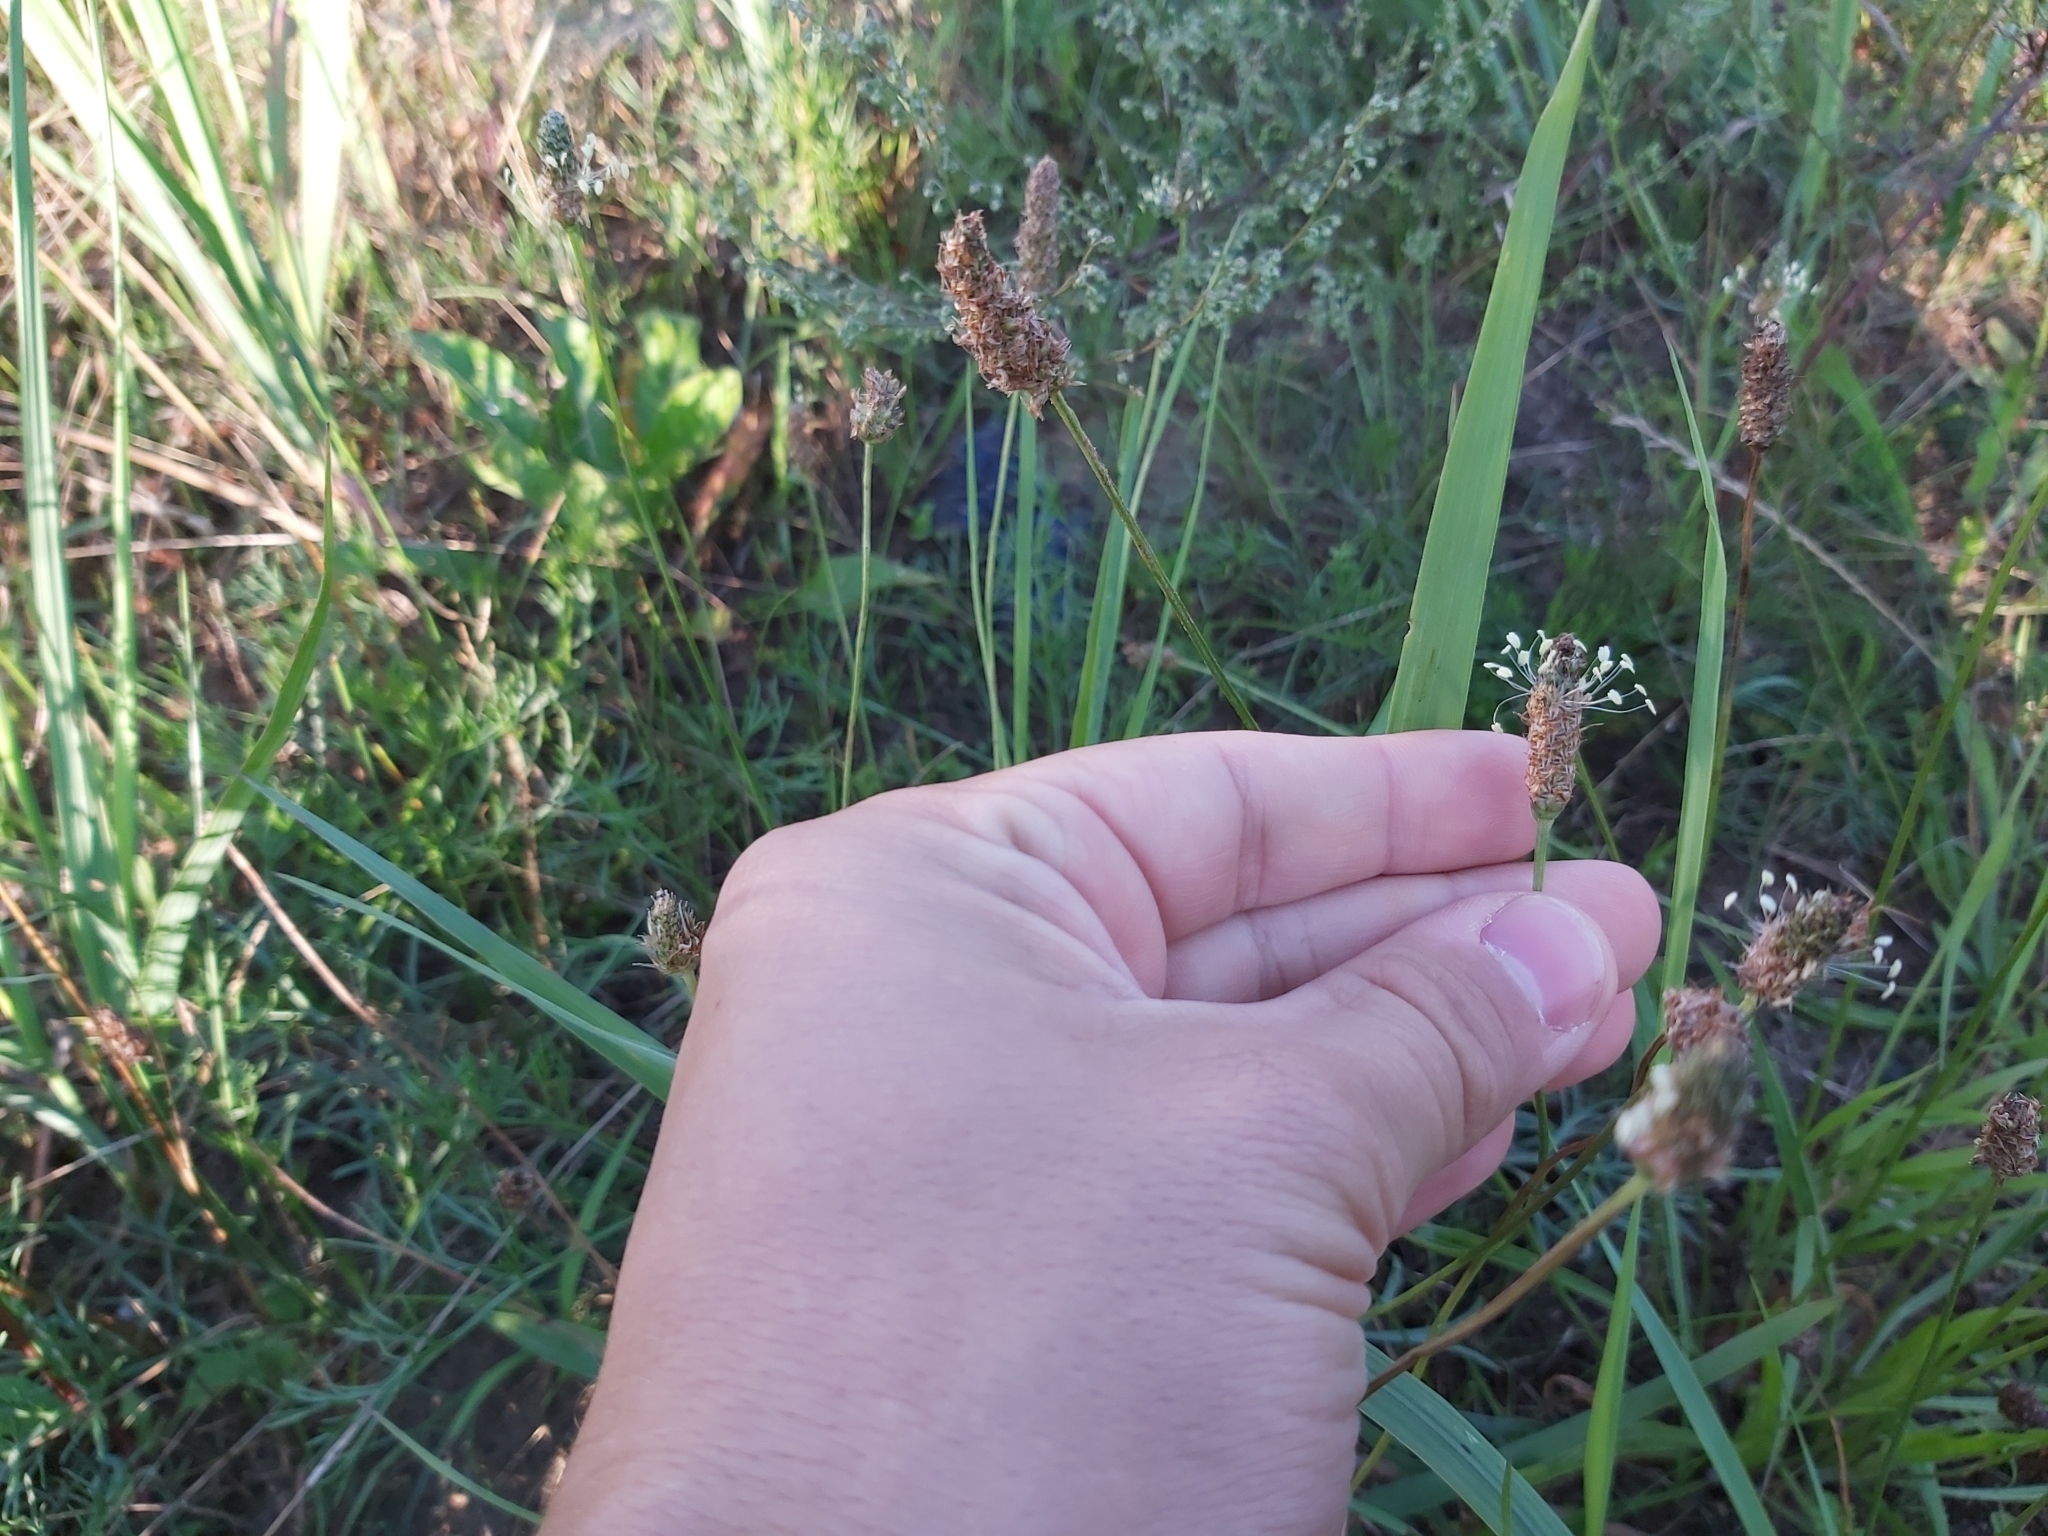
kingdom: Plantae
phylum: Tracheophyta
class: Magnoliopsida
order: Lamiales
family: Plantaginaceae
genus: Plantago
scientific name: Plantago lanceolata
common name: Ribwort plantain
